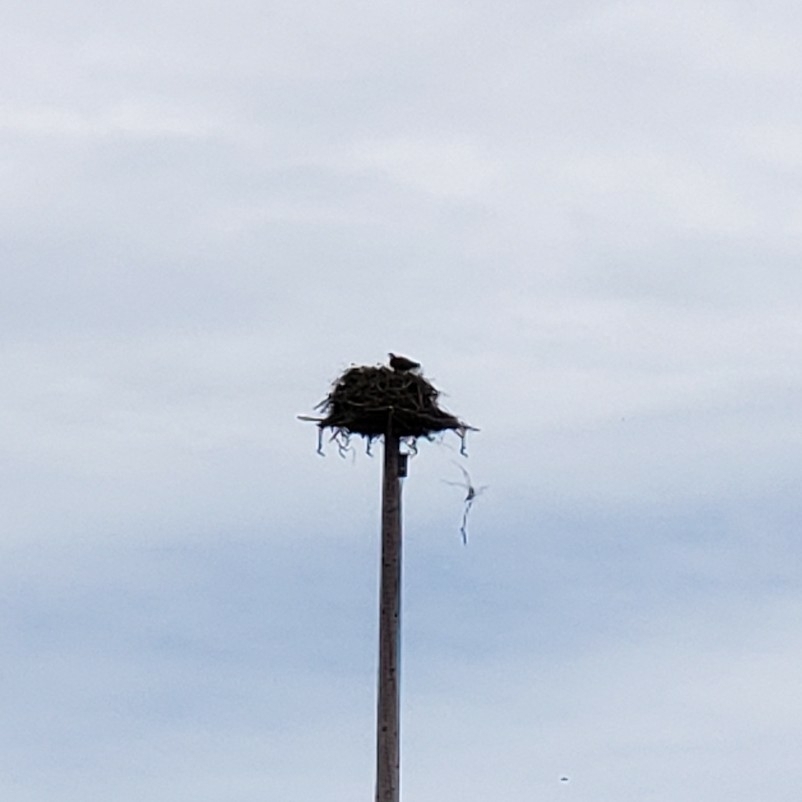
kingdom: Animalia
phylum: Chordata
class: Aves
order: Accipitriformes
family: Pandionidae
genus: Pandion
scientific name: Pandion haliaetus
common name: Osprey
